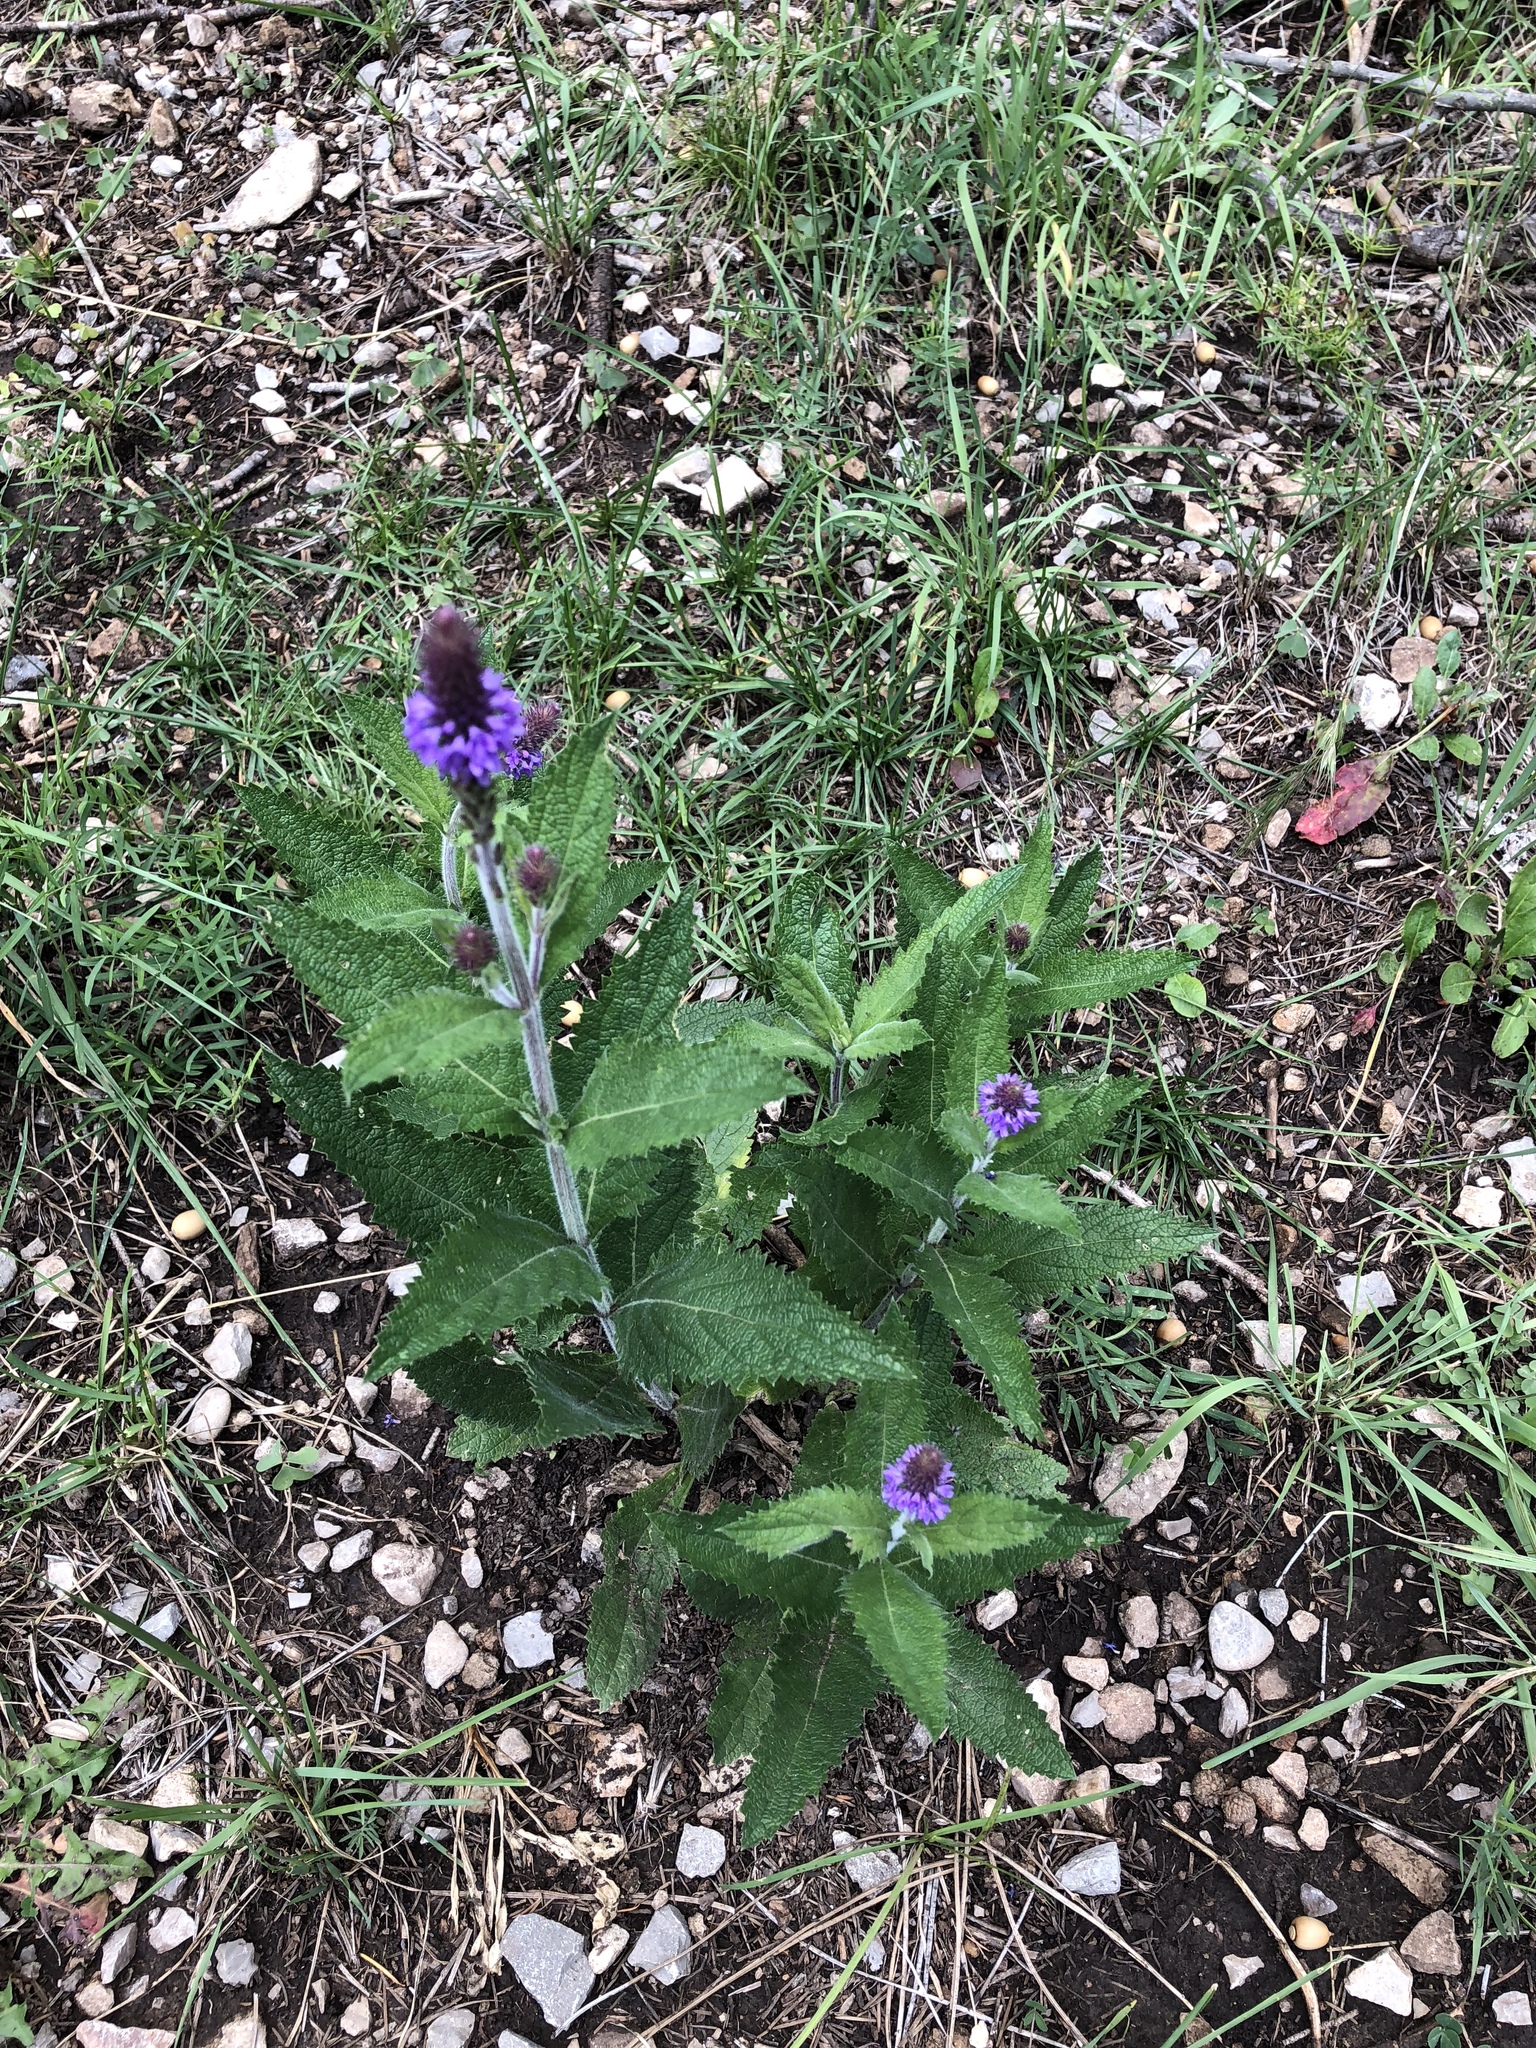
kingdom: Plantae
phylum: Tracheophyta
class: Magnoliopsida
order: Lamiales
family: Verbenaceae
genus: Verbena
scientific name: Verbena macdougalii
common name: New mexico vervain
